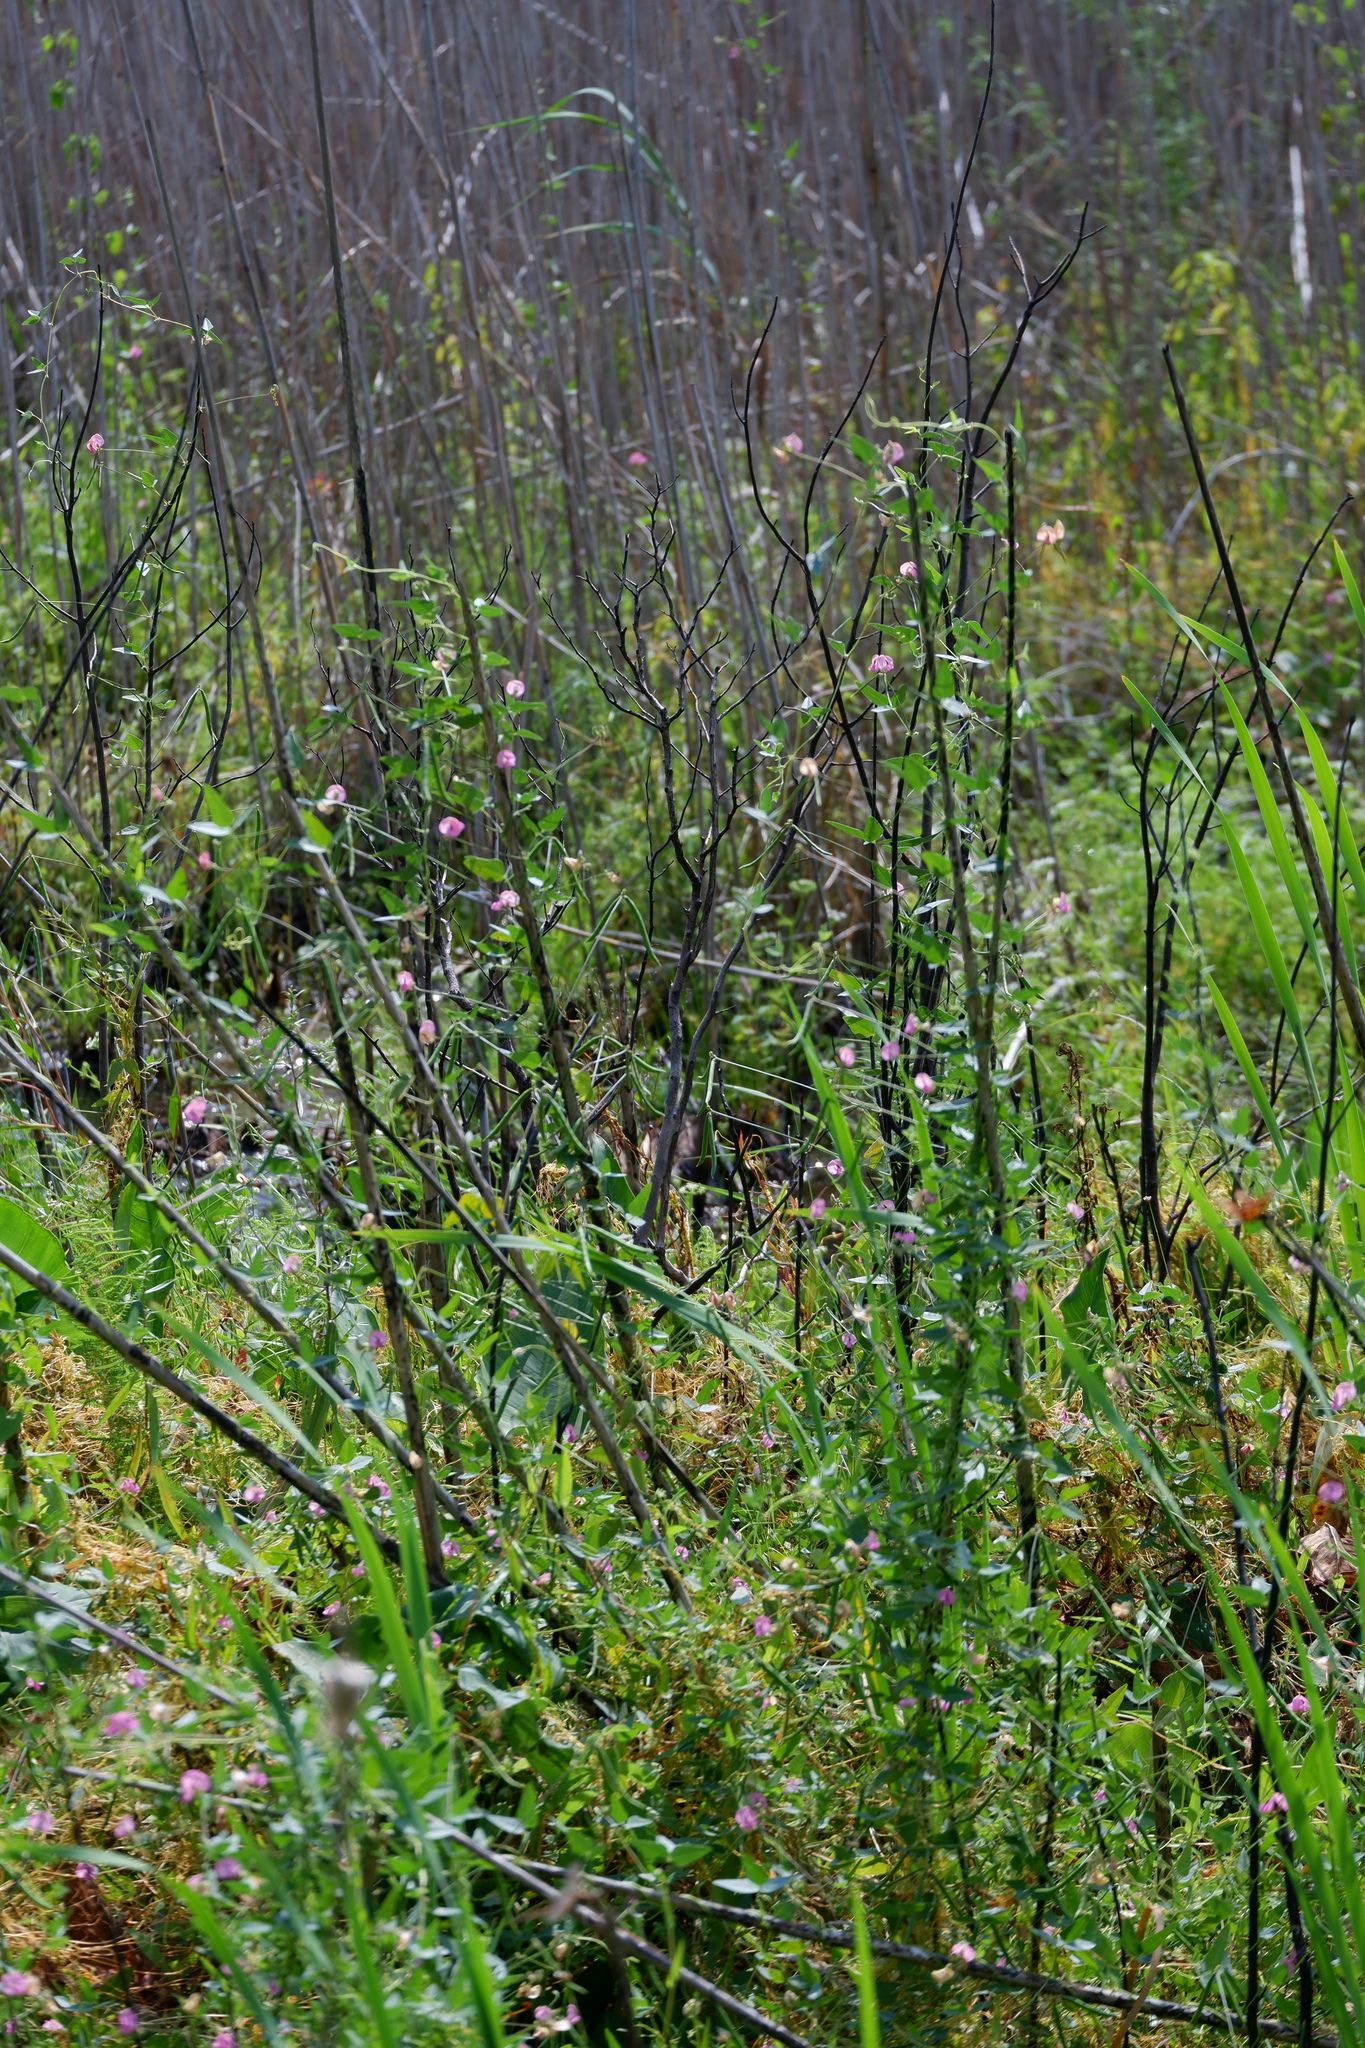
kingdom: Plantae
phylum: Tracheophyta
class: Magnoliopsida
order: Fabales
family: Fabaceae
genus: Strophostyles
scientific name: Strophostyles umbellata
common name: Perennial wild bean
